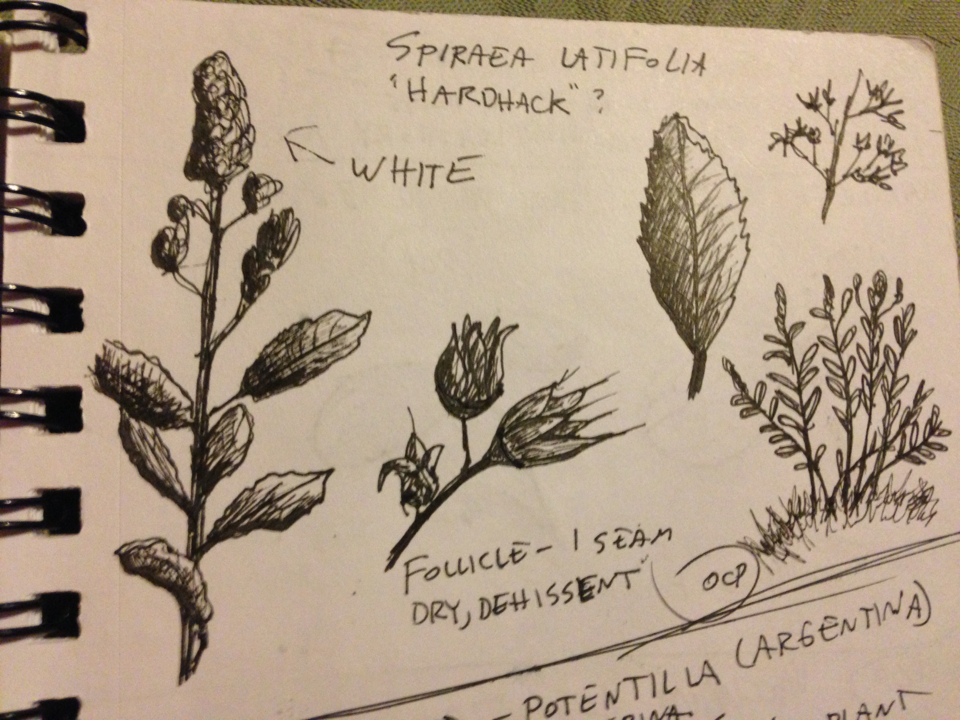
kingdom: Plantae
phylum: Tracheophyta
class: Magnoliopsida
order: Rosales
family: Rosaceae
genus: Spiraea
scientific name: Spiraea alba
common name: Pale bridewort
